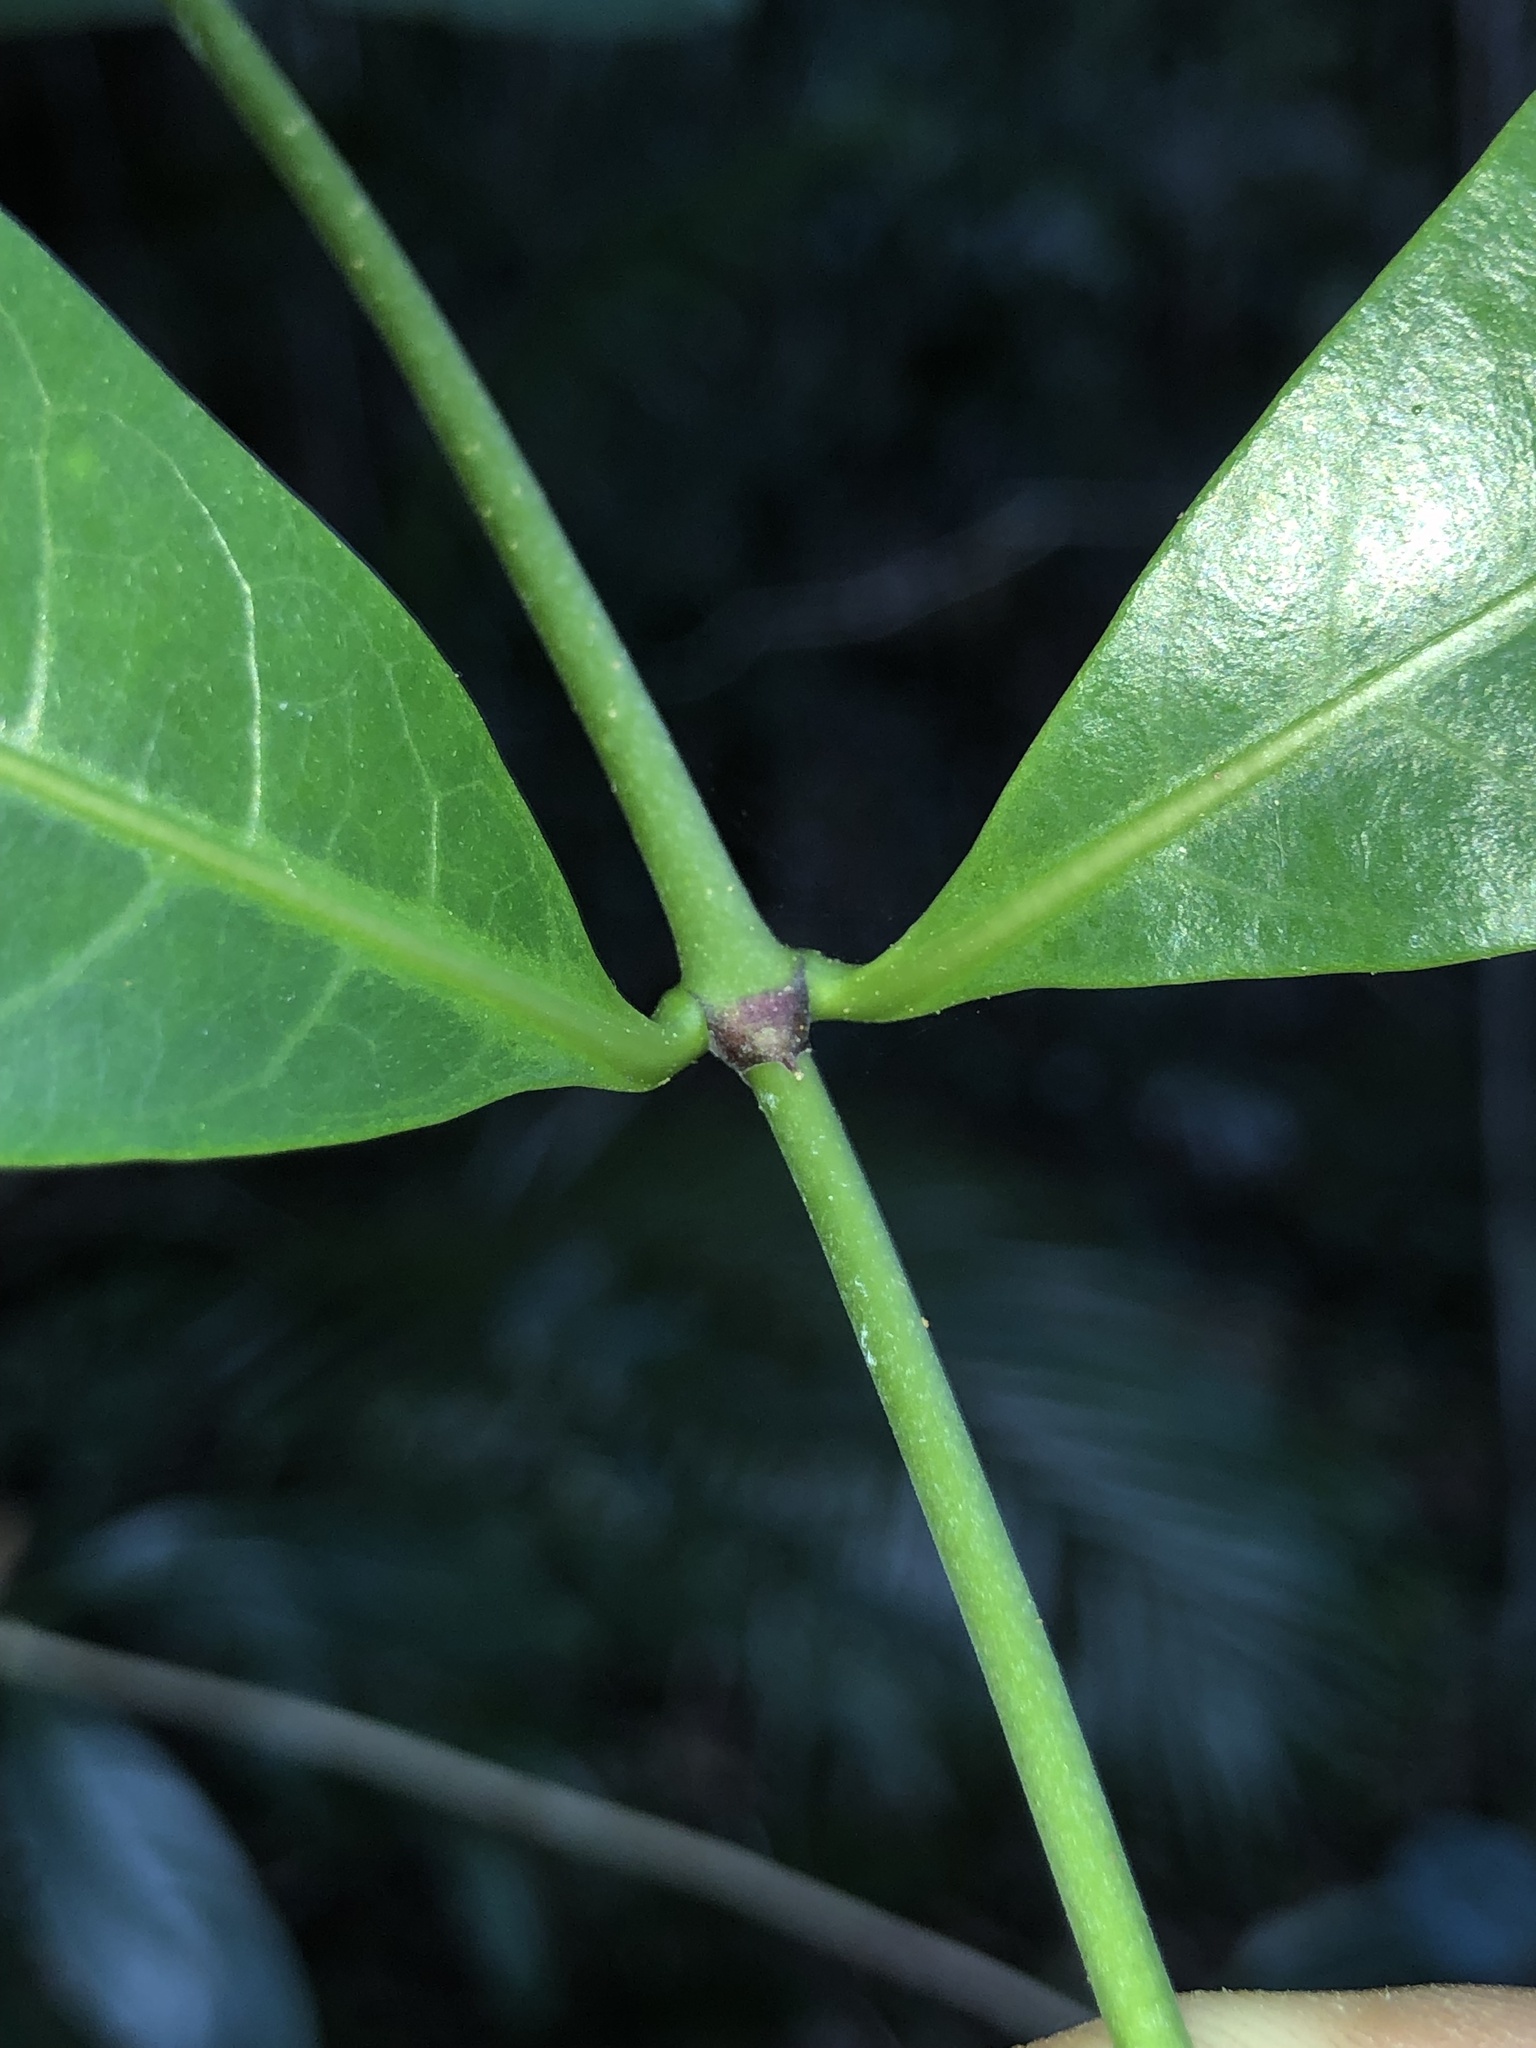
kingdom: Plantae
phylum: Tracheophyta
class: Magnoliopsida
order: Gentianales
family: Rubiaceae
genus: Coelospermum
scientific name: Coelospermum paniculatum
